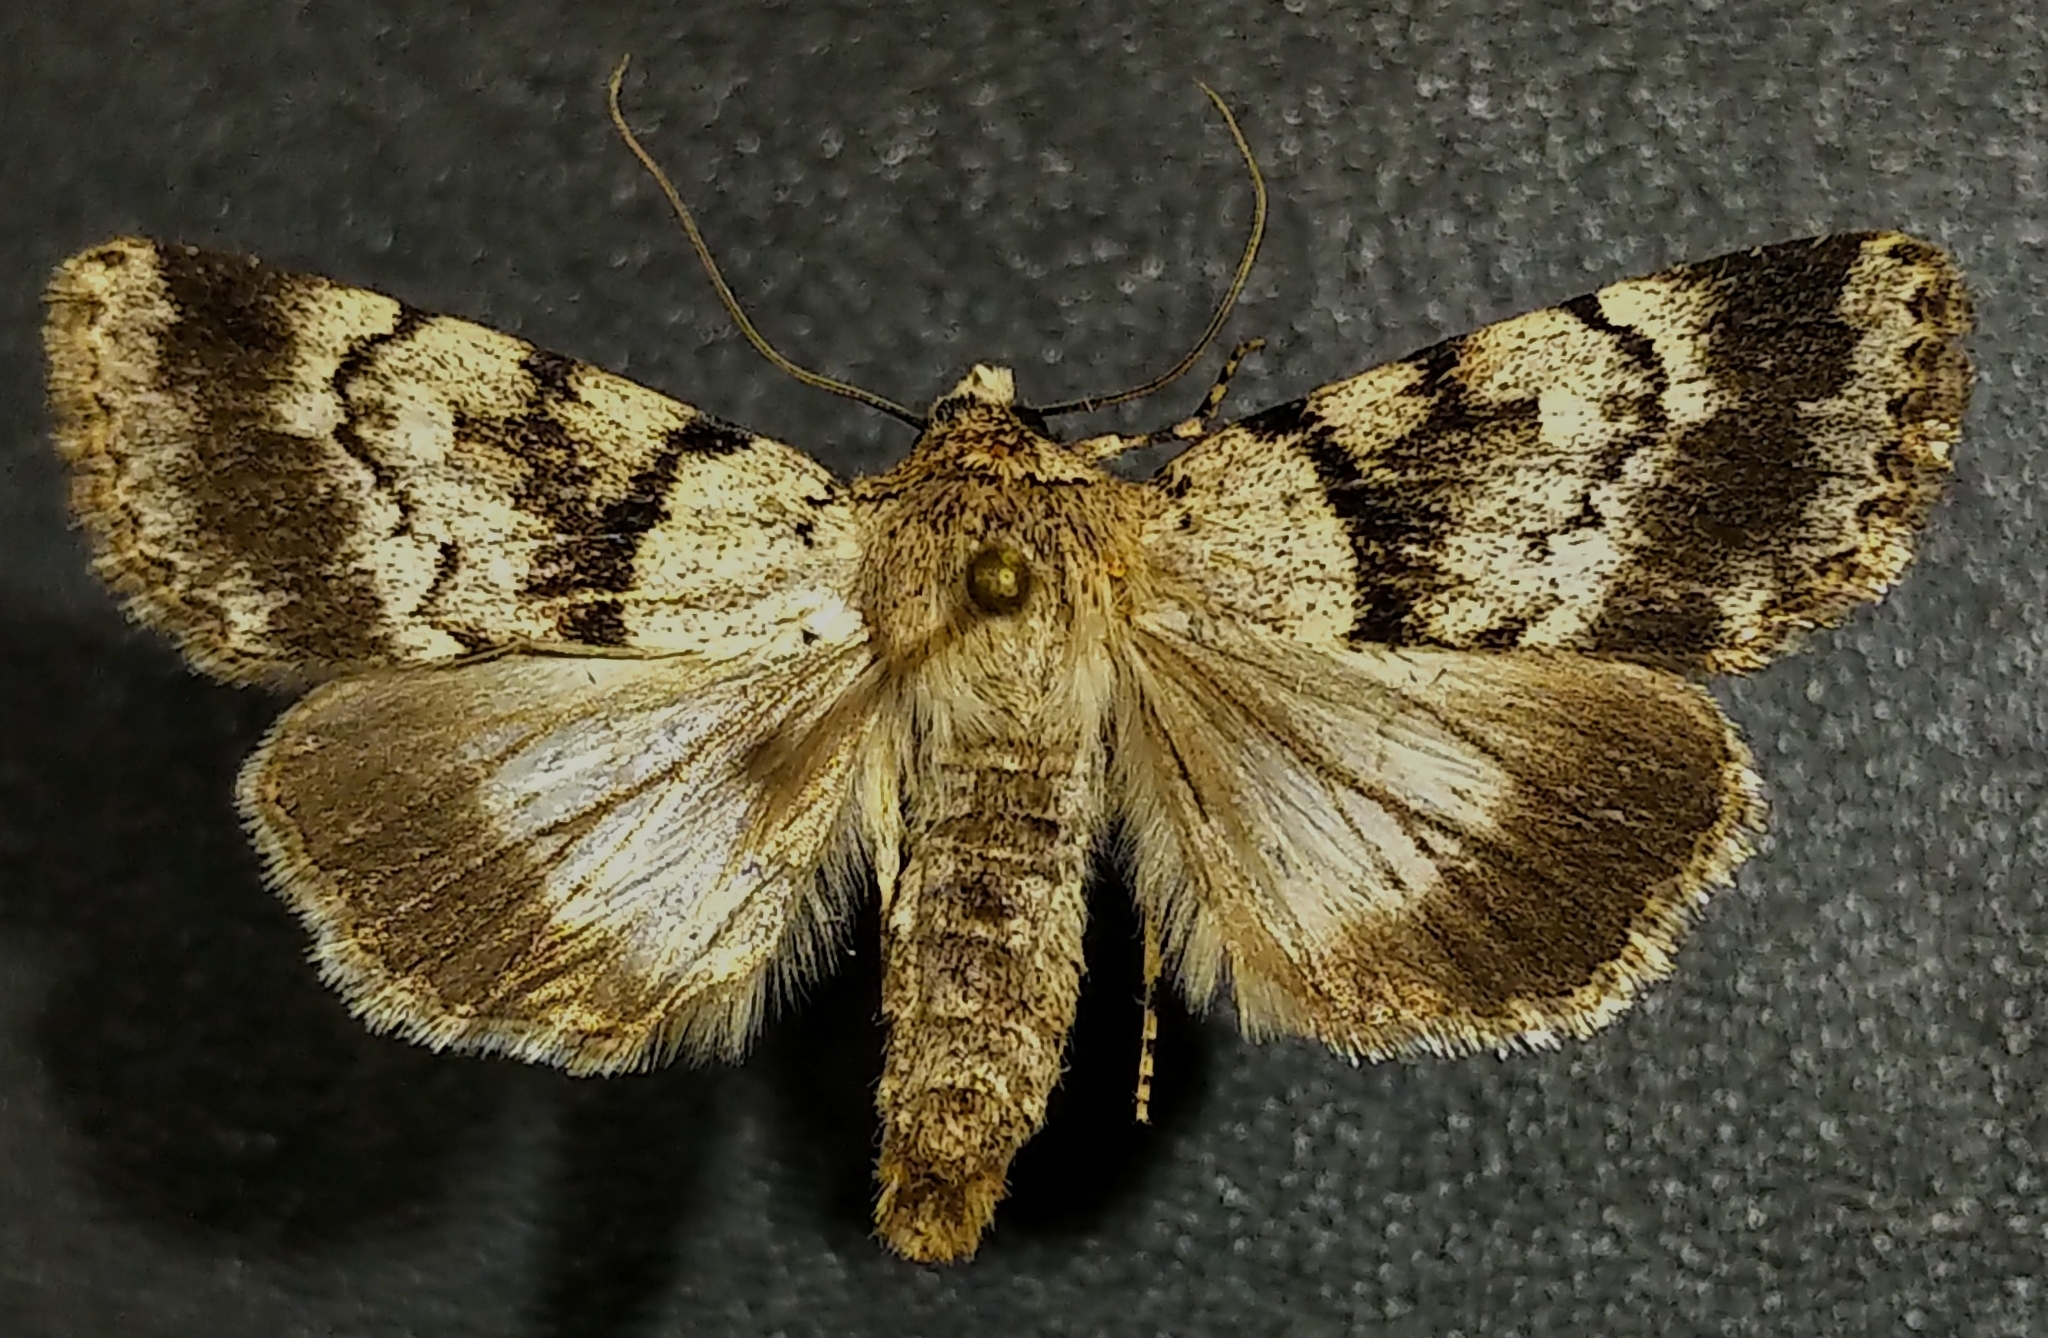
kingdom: Animalia
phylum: Arthropoda
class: Insecta
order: Lepidoptera
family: Noctuidae
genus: Sympistis
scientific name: Sympistis extremis
